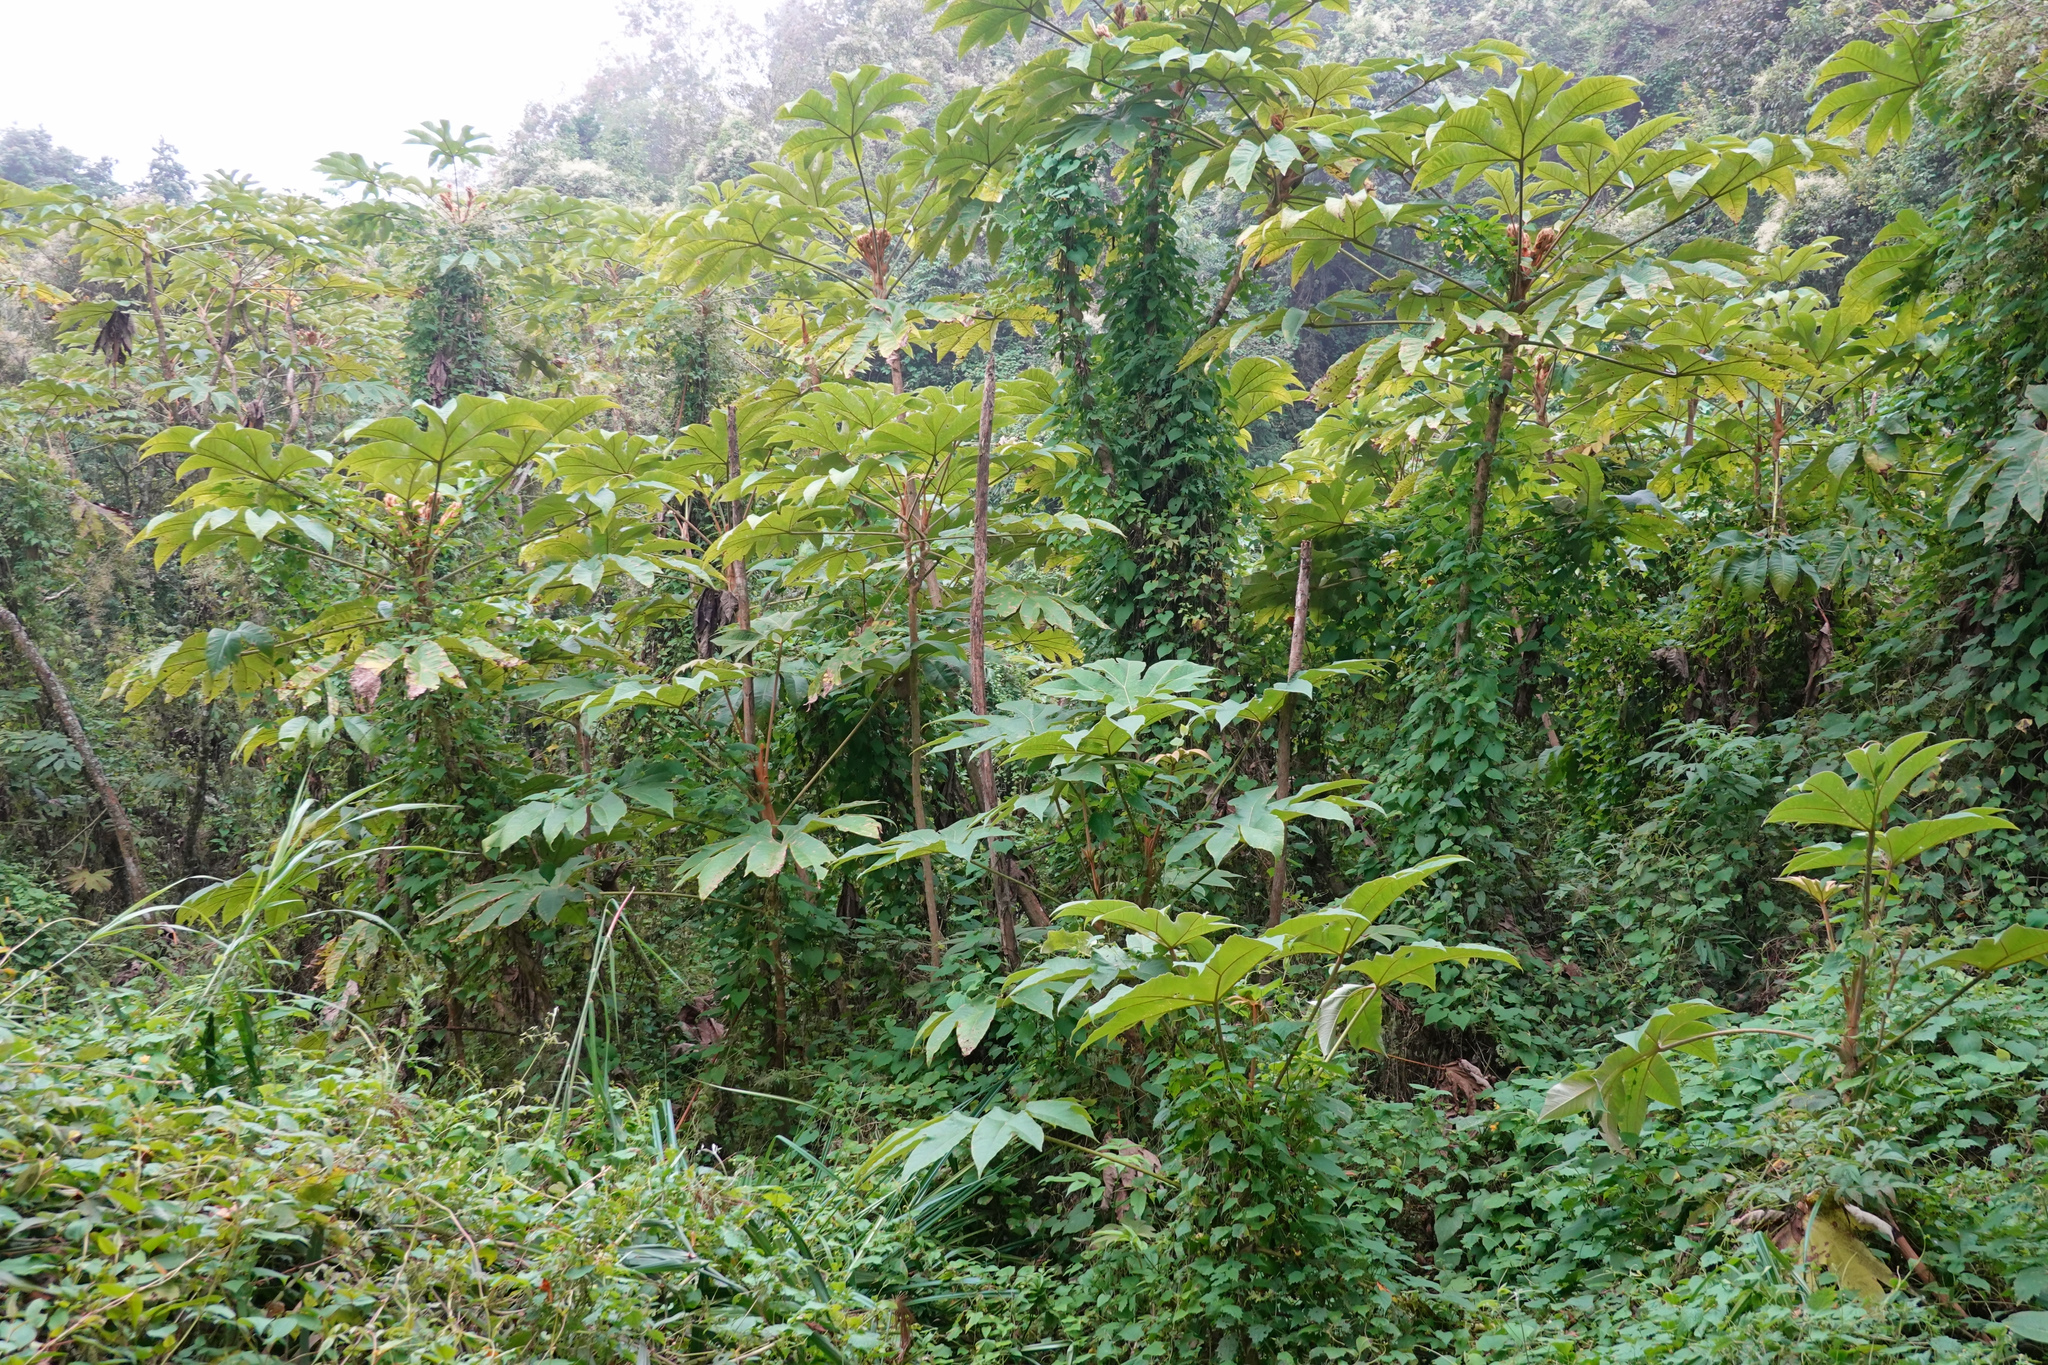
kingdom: Plantae
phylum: Tracheophyta
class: Magnoliopsida
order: Apiales
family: Araliaceae
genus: Tetrapanax
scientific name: Tetrapanax papyrifer
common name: Rice-paper plant
